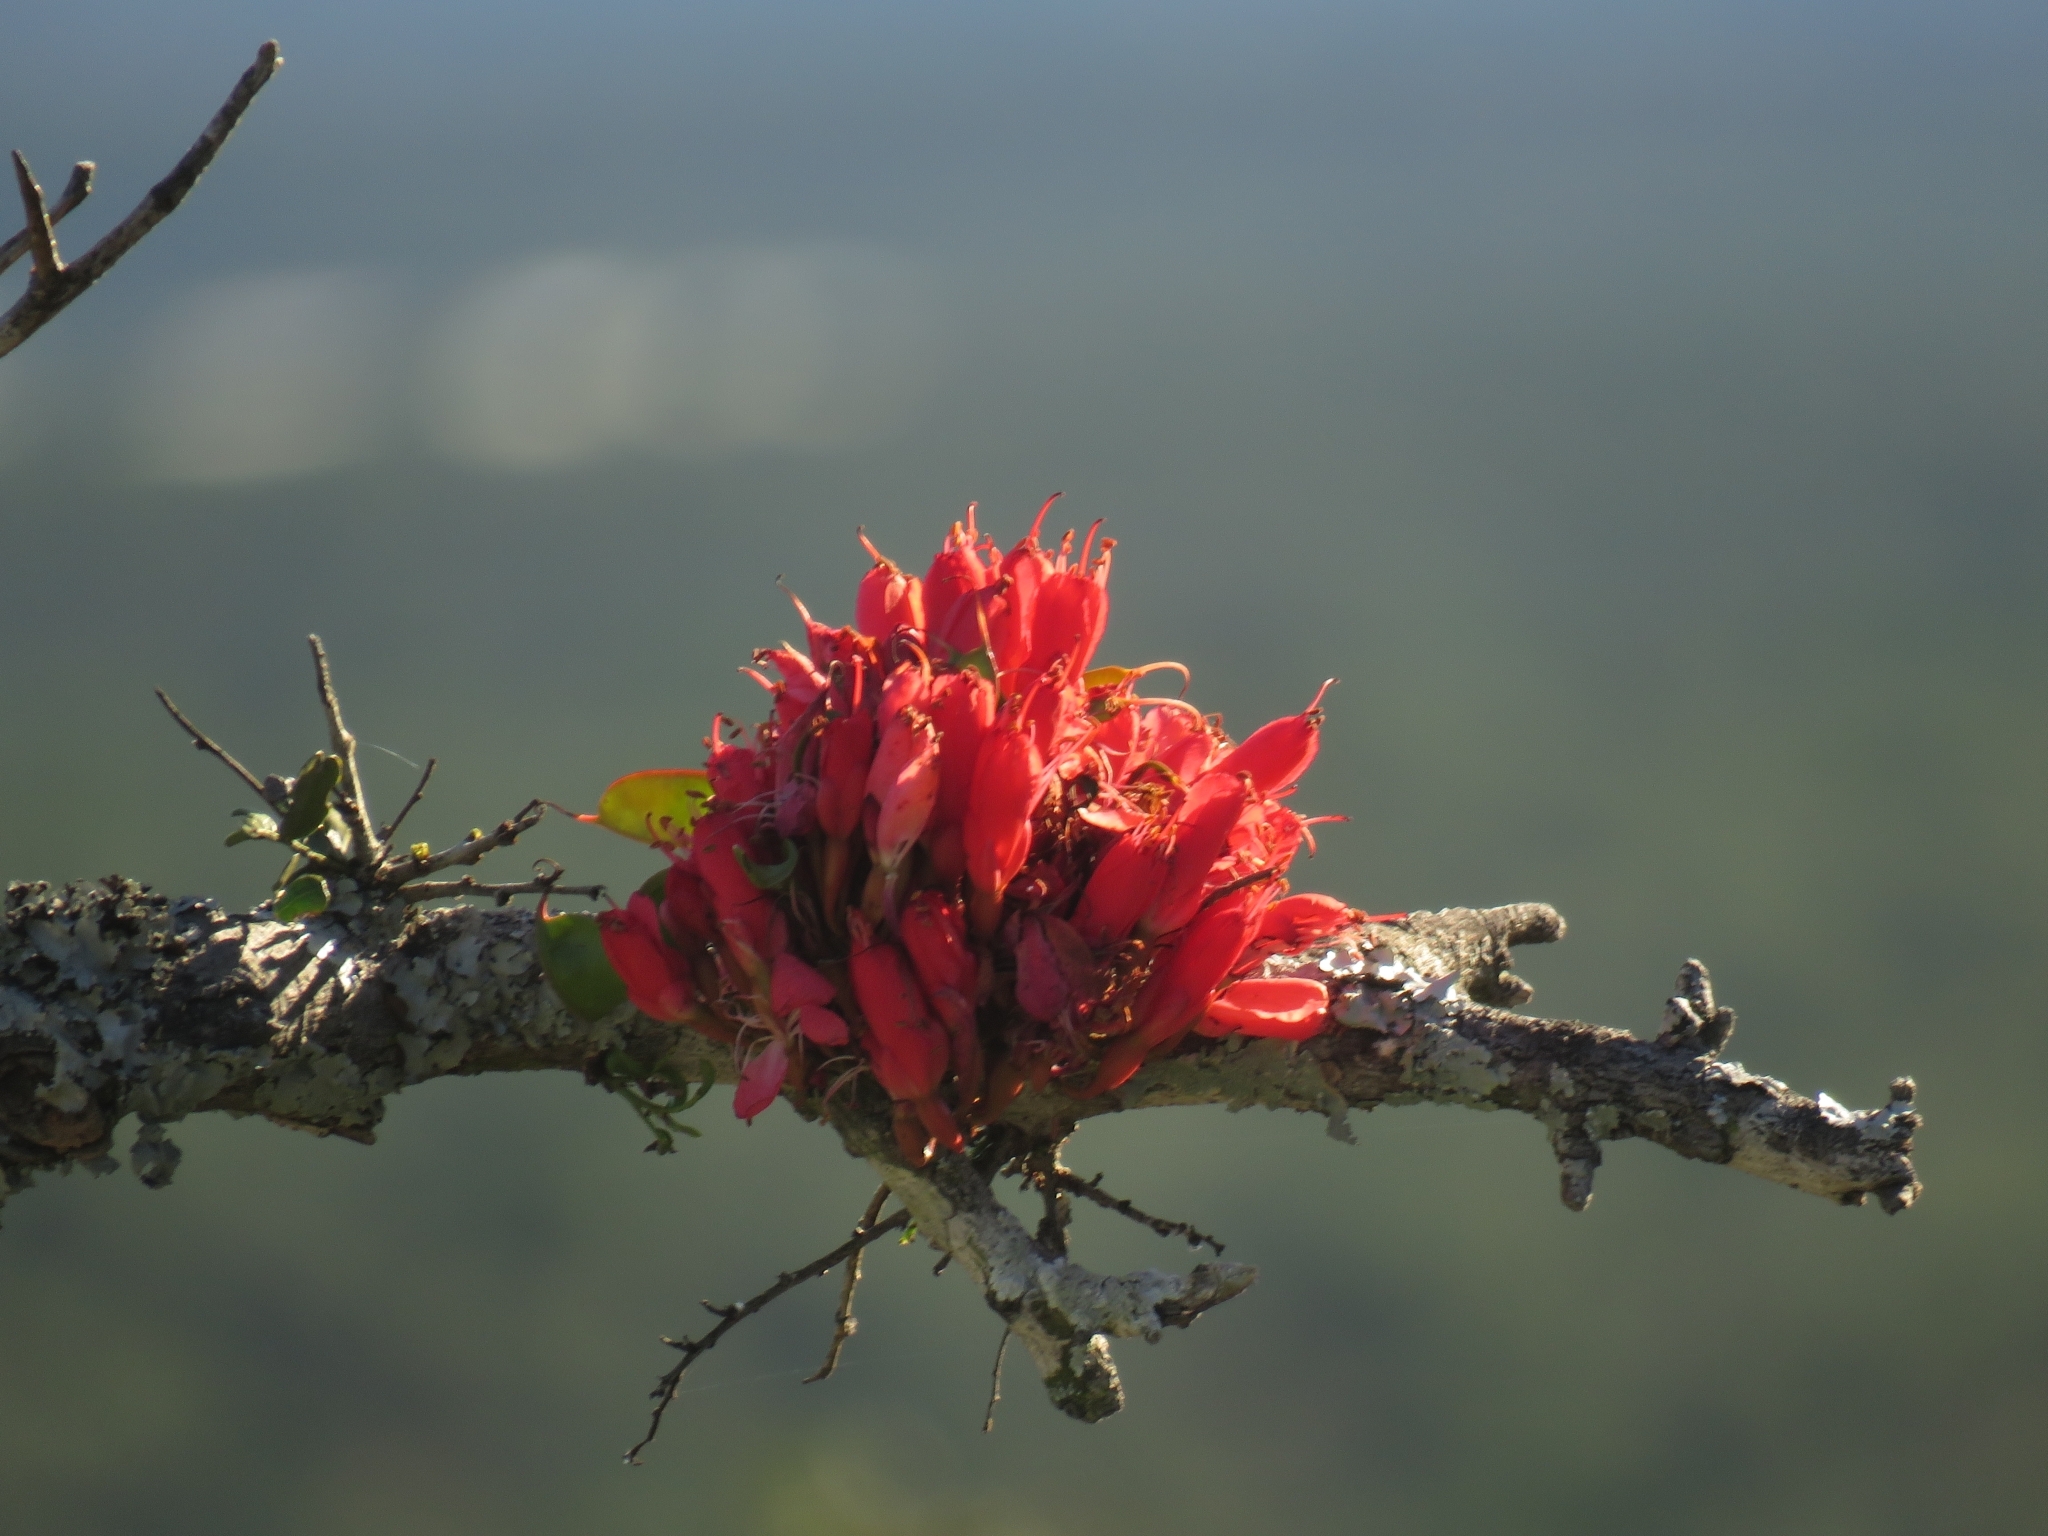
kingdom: Plantae
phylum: Tracheophyta
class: Magnoliopsida
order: Fabales
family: Fabaceae
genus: Schotia
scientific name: Schotia afra
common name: Hottentot's bean
